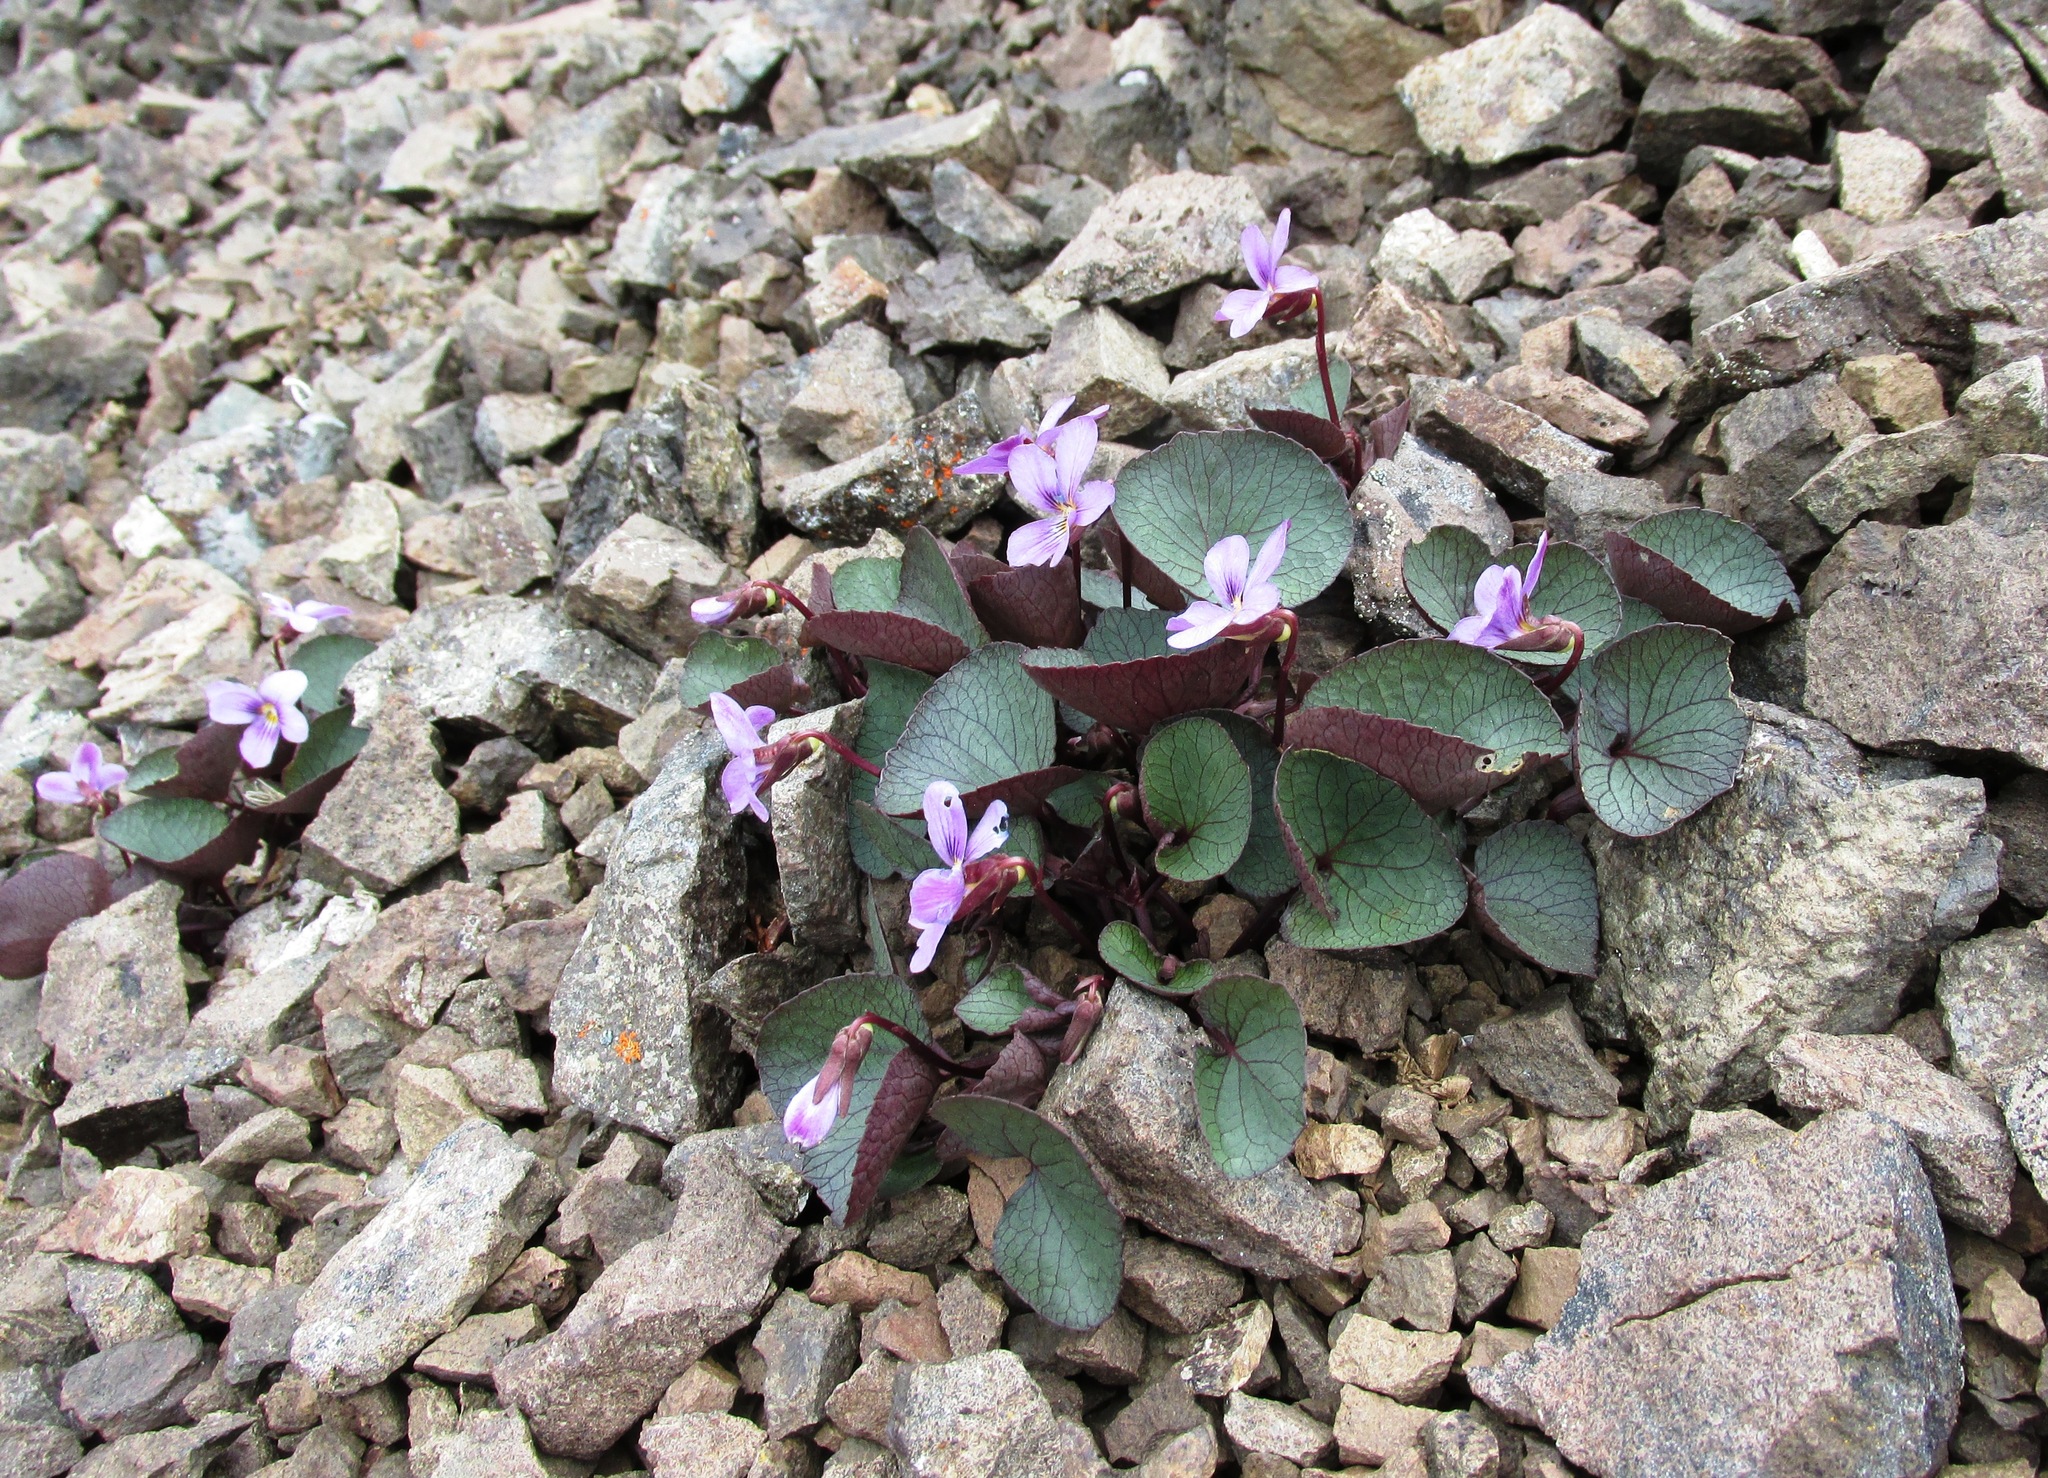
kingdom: Plantae
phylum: Tracheophyta
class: Magnoliopsida
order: Malpighiales
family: Violaceae
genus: Viola
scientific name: Viola flettii
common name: Rock violet
